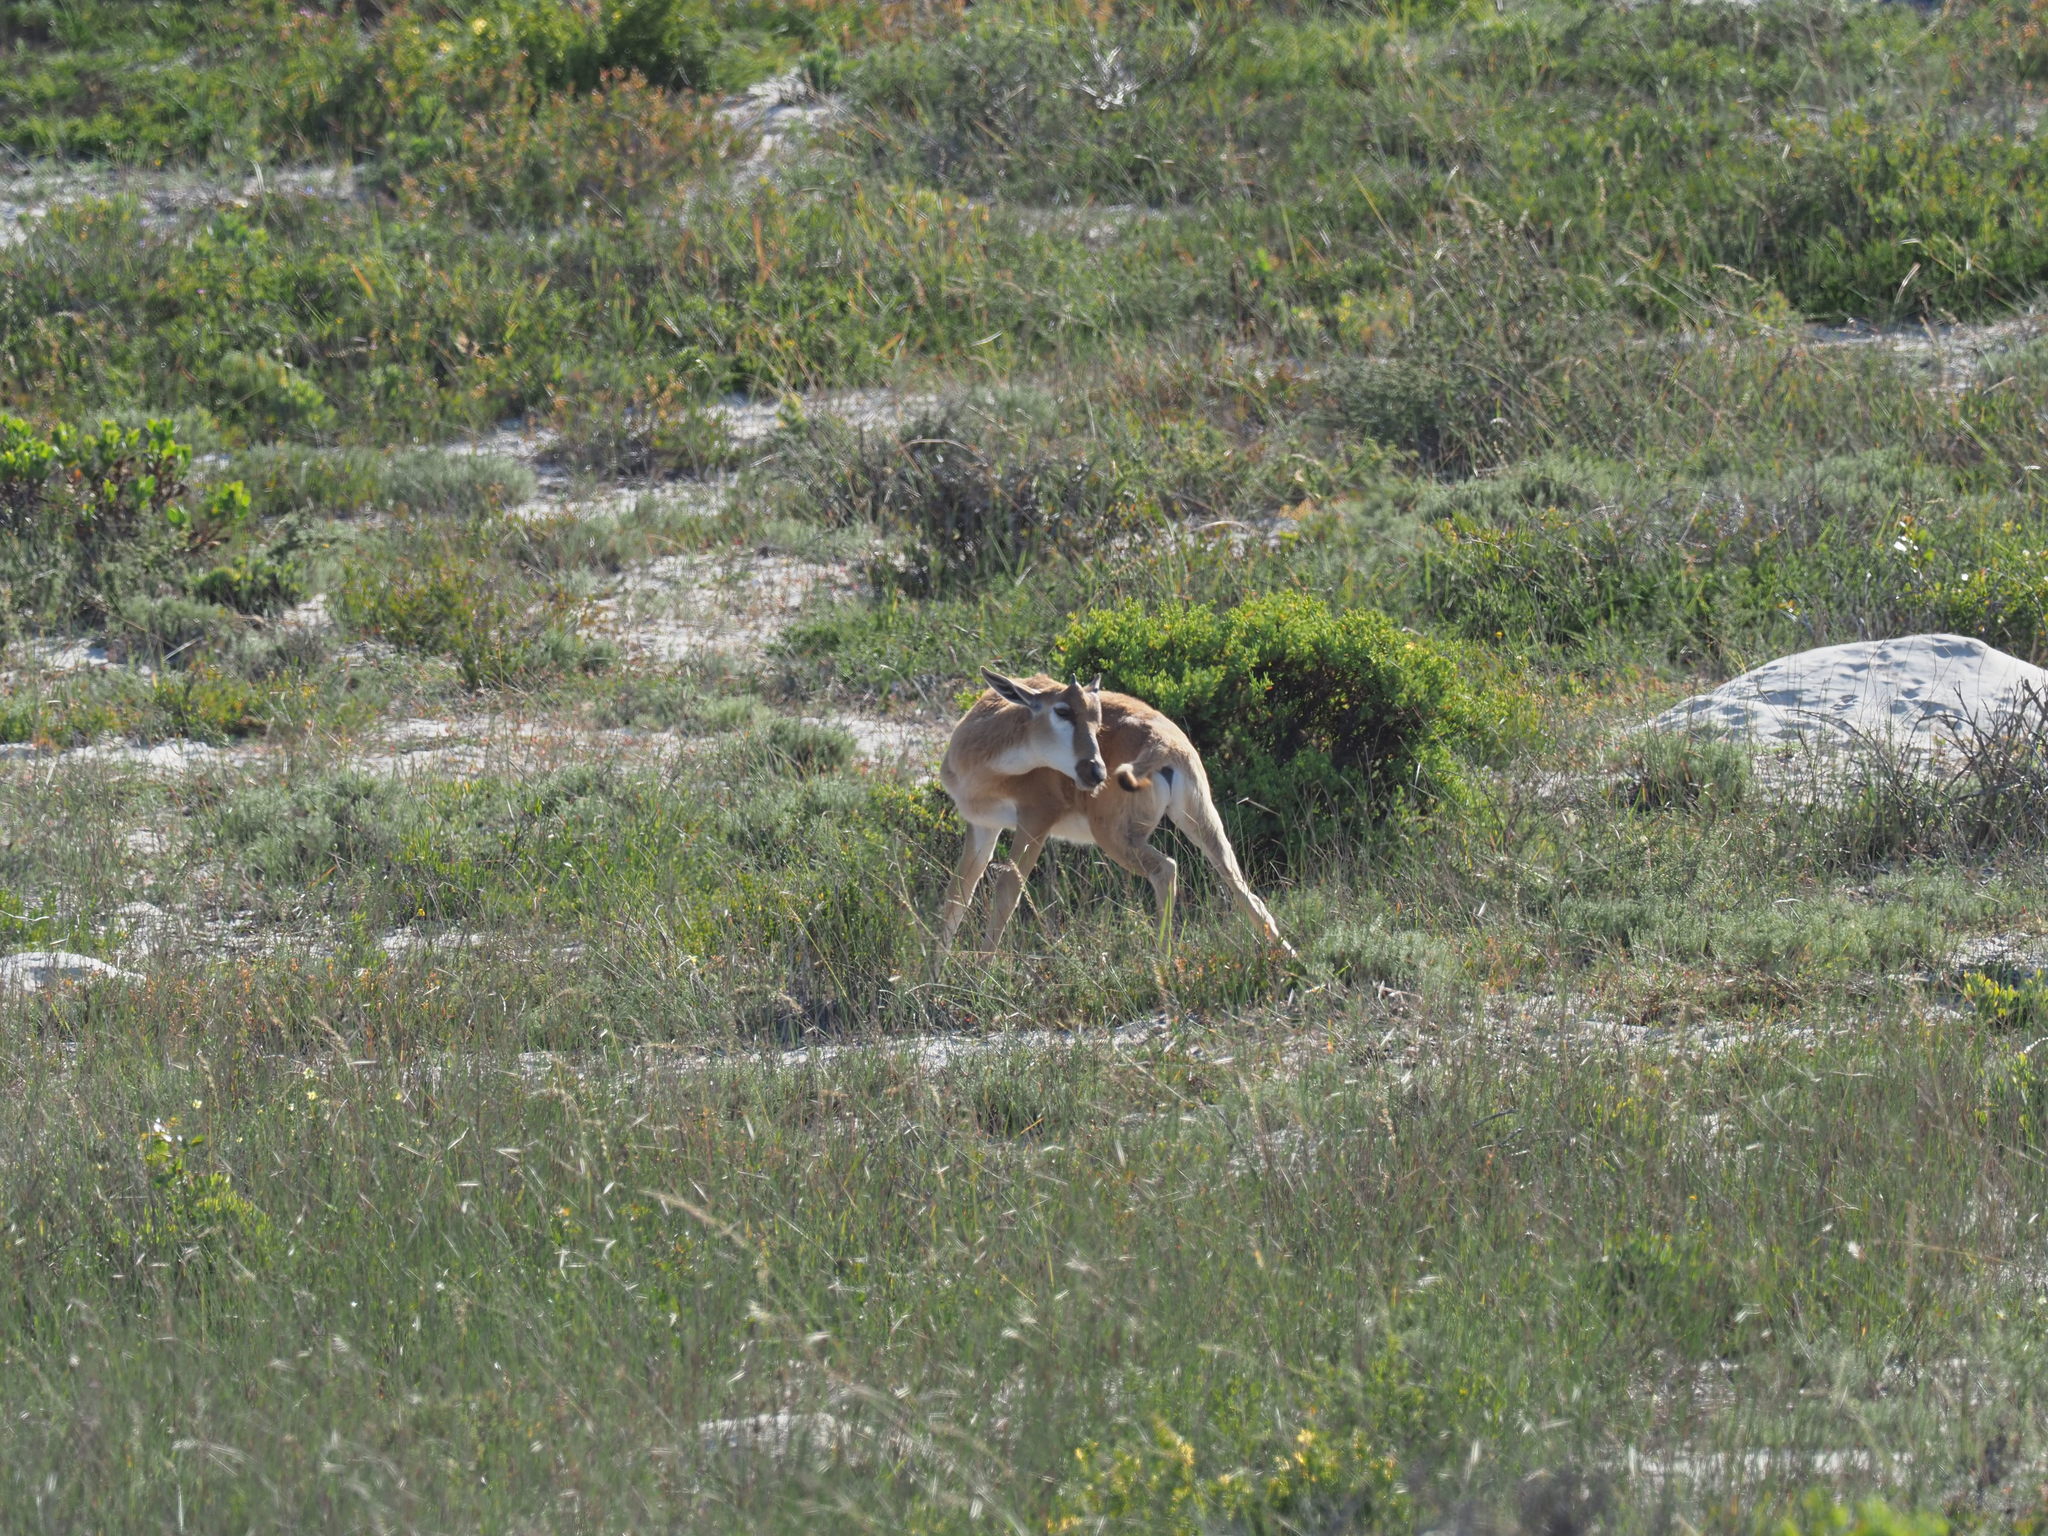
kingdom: Animalia
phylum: Chordata
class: Mammalia
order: Artiodactyla
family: Bovidae
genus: Damaliscus
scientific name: Damaliscus pygargus
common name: Bontebok
